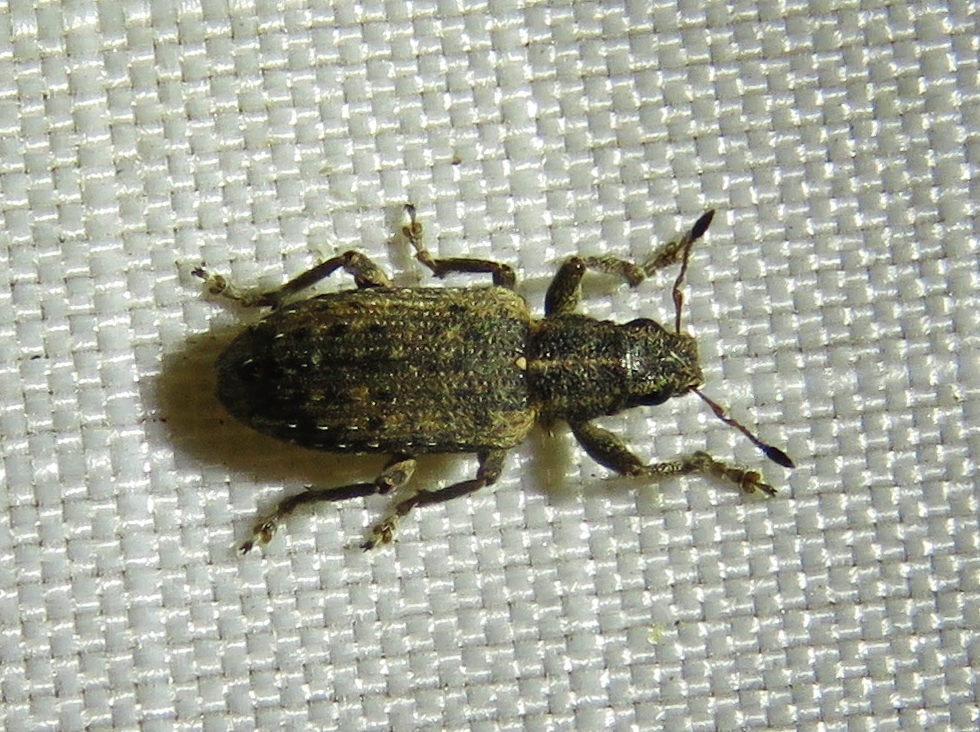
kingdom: Animalia
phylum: Arthropoda
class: Insecta
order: Coleoptera
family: Curculionidae
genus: Sitones
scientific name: Sitones californius
